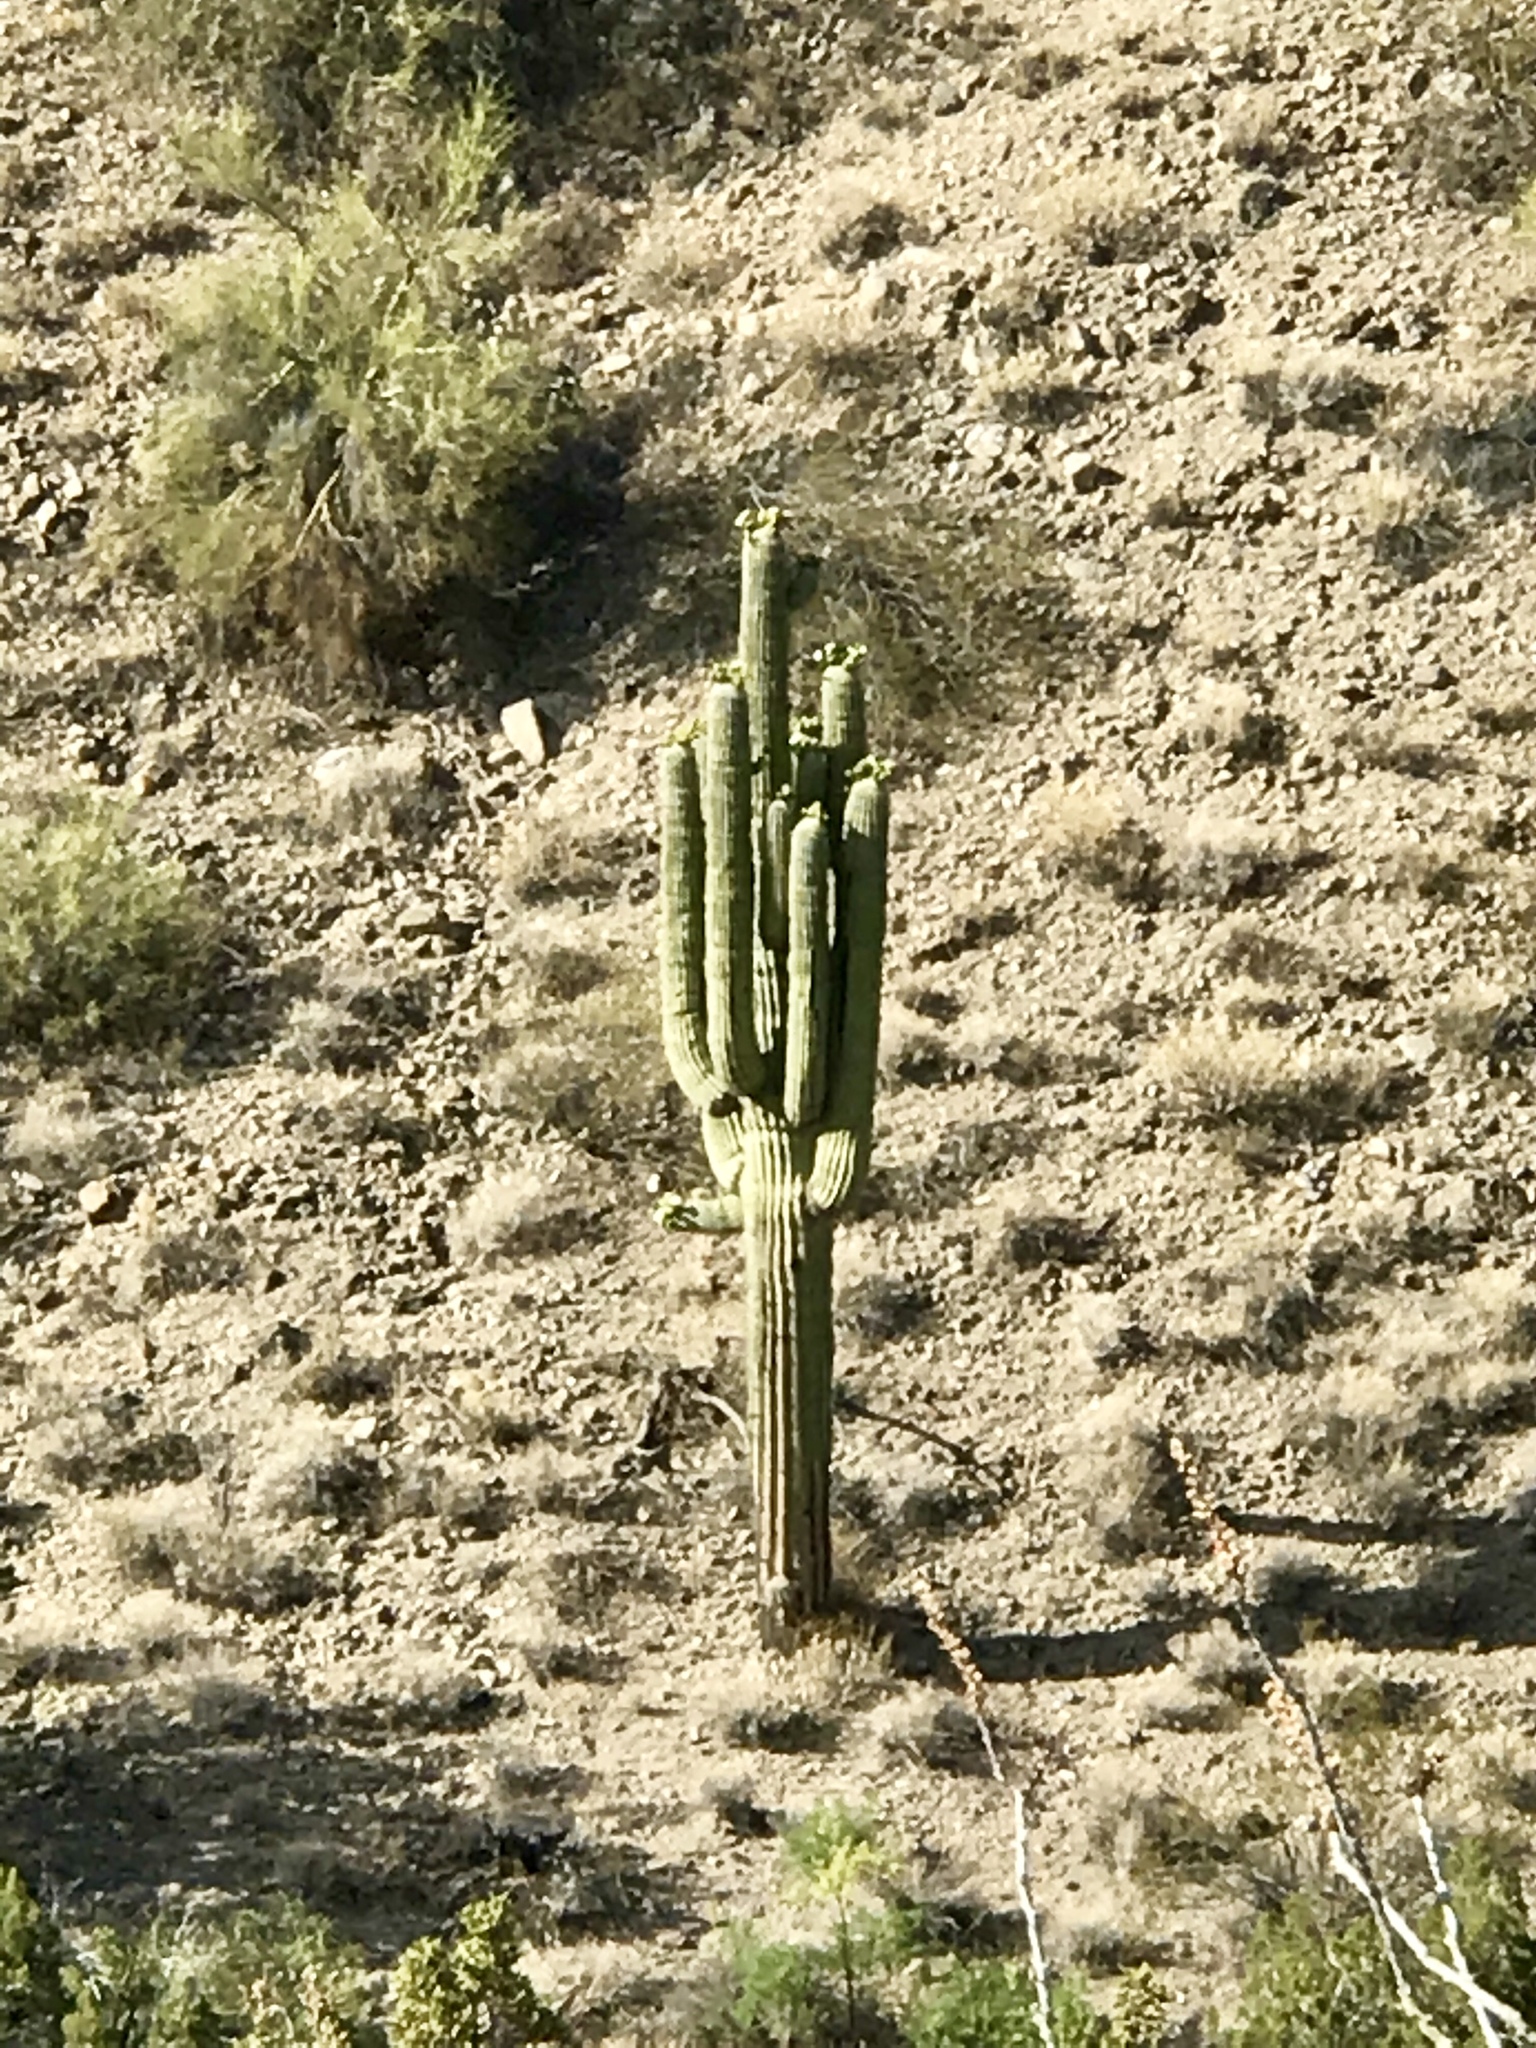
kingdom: Plantae
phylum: Tracheophyta
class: Magnoliopsida
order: Caryophyllales
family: Cactaceae
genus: Carnegiea
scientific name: Carnegiea gigantea
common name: Saguaro
